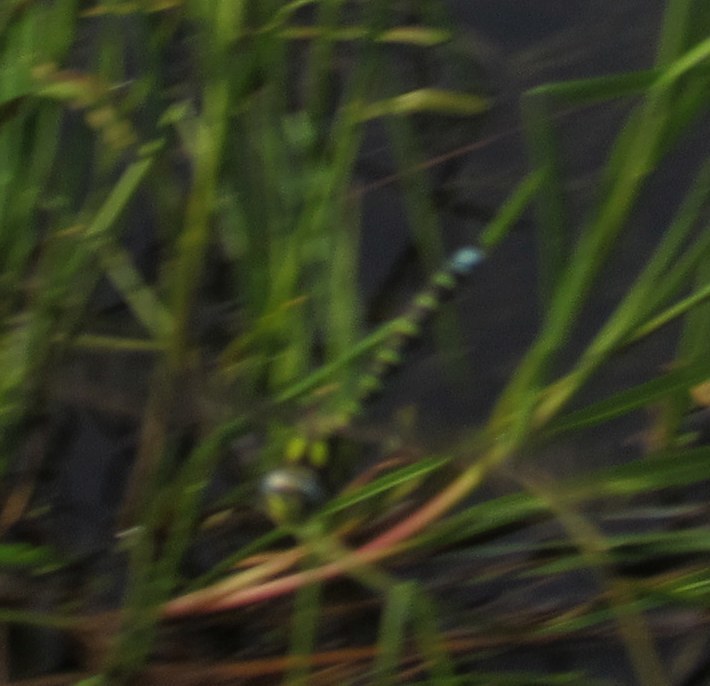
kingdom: Animalia
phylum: Arthropoda
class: Insecta
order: Odonata
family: Aeshnidae
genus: Aeshna
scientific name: Aeshna cyanea
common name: Southern hawker
